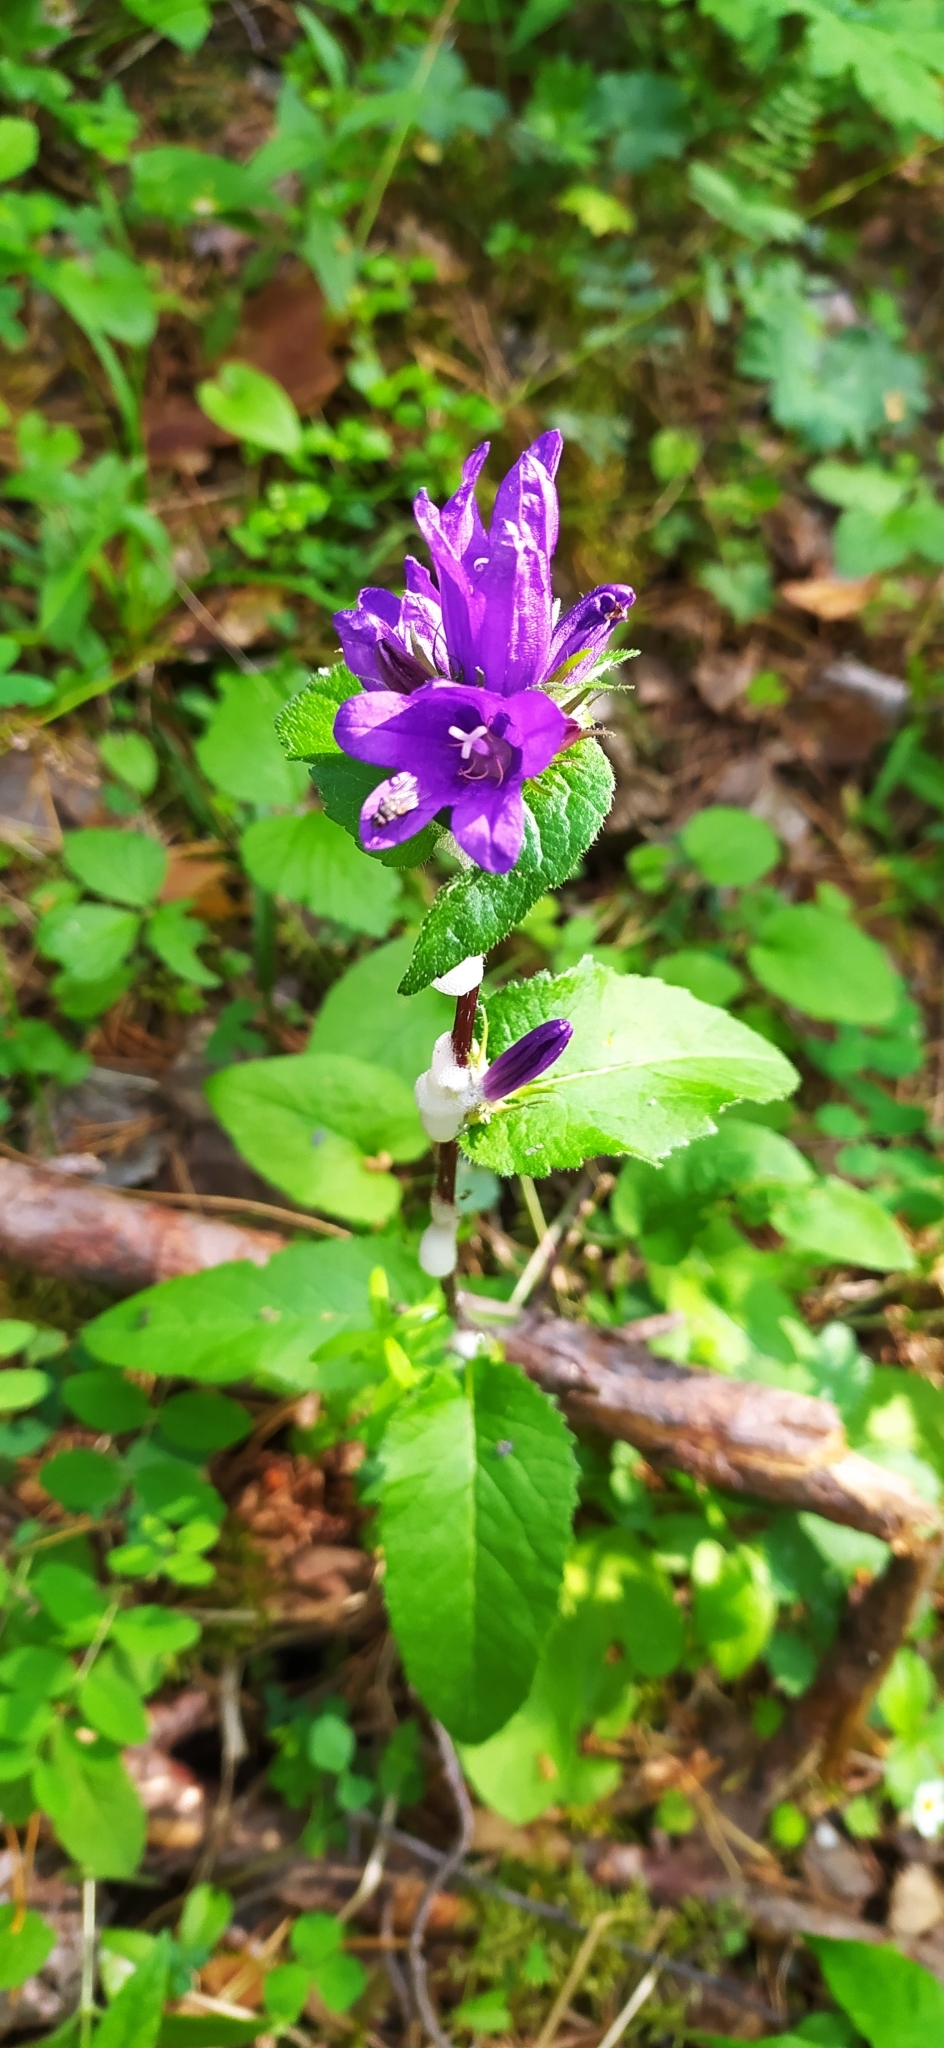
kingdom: Plantae
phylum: Tracheophyta
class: Magnoliopsida
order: Asterales
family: Campanulaceae
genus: Campanula
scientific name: Campanula glomerata
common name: Clustered bellflower
